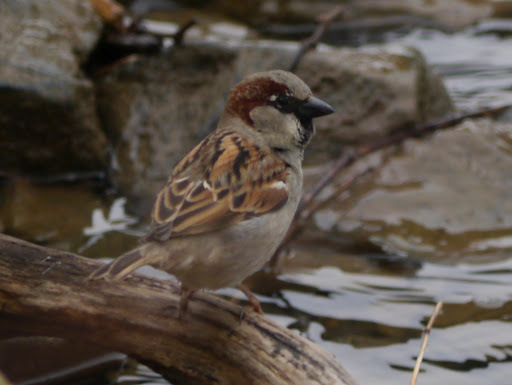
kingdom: Animalia
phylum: Chordata
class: Aves
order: Passeriformes
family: Passeridae
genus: Passer
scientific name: Passer domesticus
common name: House sparrow
